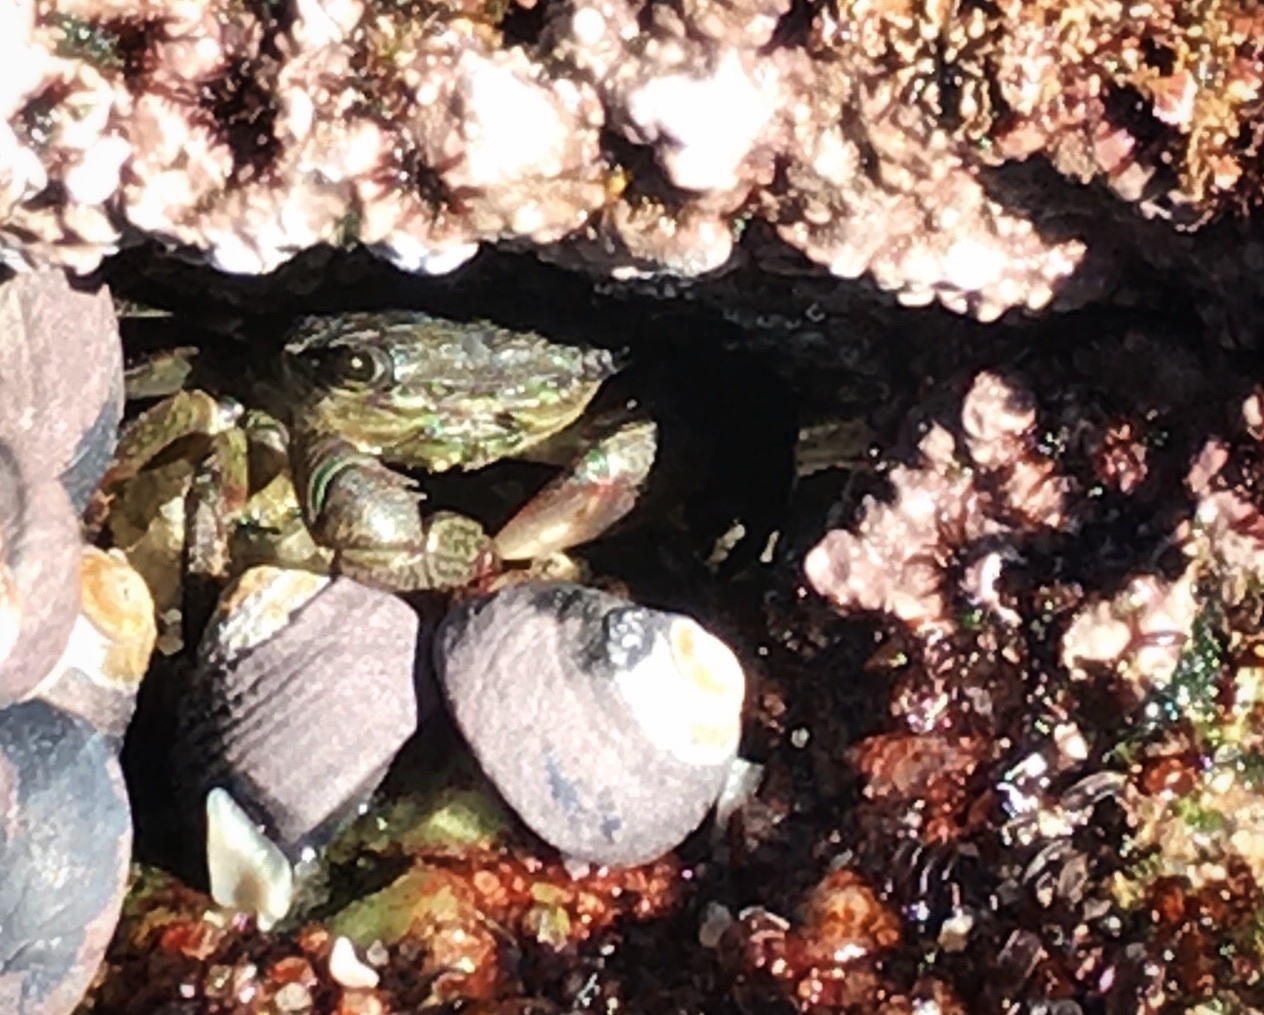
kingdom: Animalia
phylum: Arthropoda
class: Malacostraca
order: Decapoda
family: Grapsidae
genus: Pachygrapsus
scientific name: Pachygrapsus crassipes
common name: Striped shore crab
